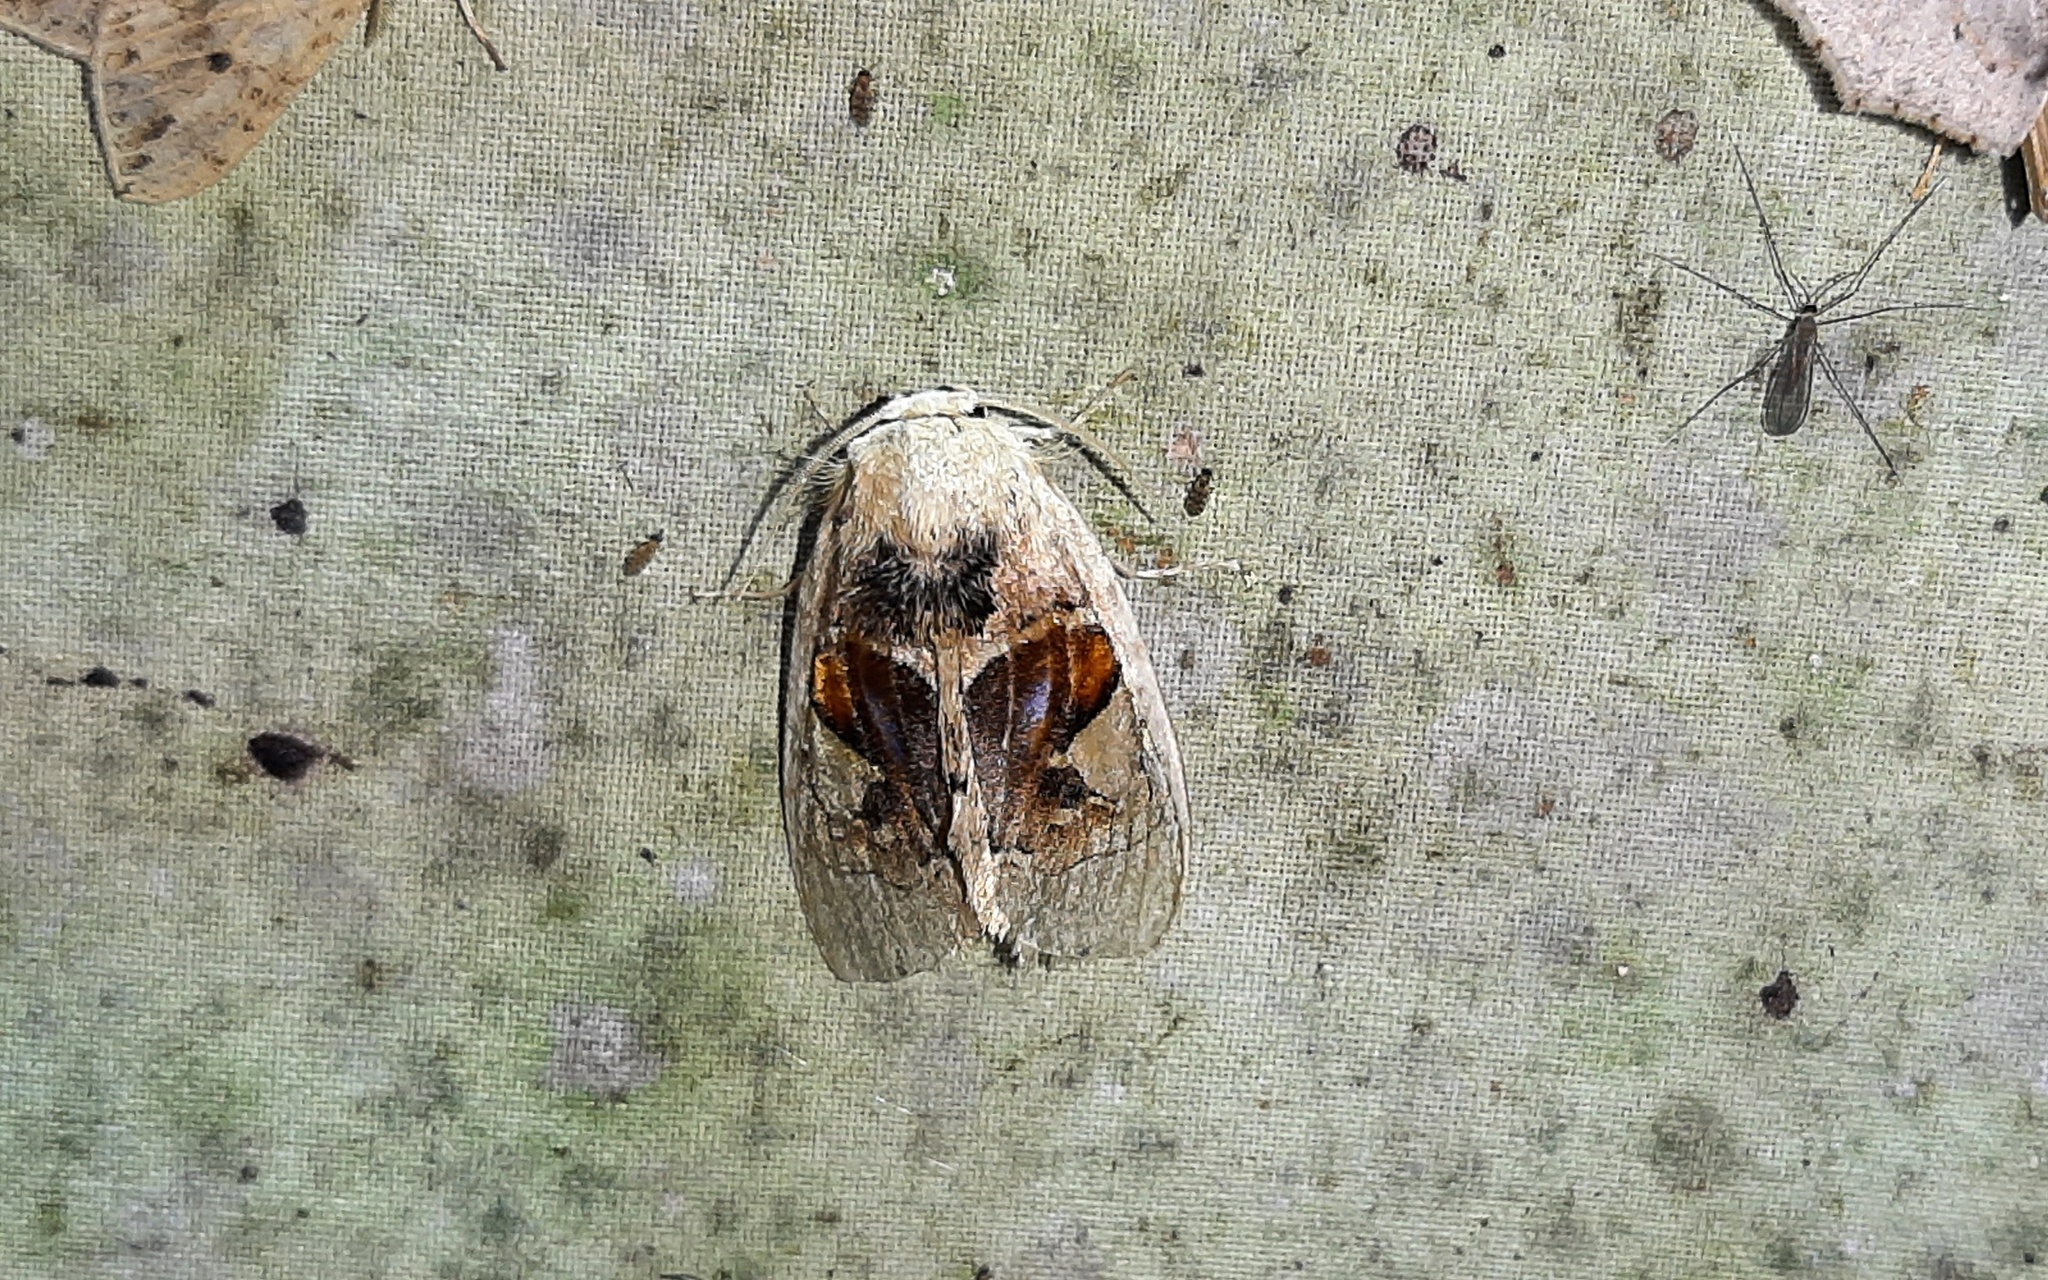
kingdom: Animalia
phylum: Arthropoda
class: Insecta
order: Lepidoptera
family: Psychidae
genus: Arrhenophanes
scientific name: Arrhenophanes perspicilla
